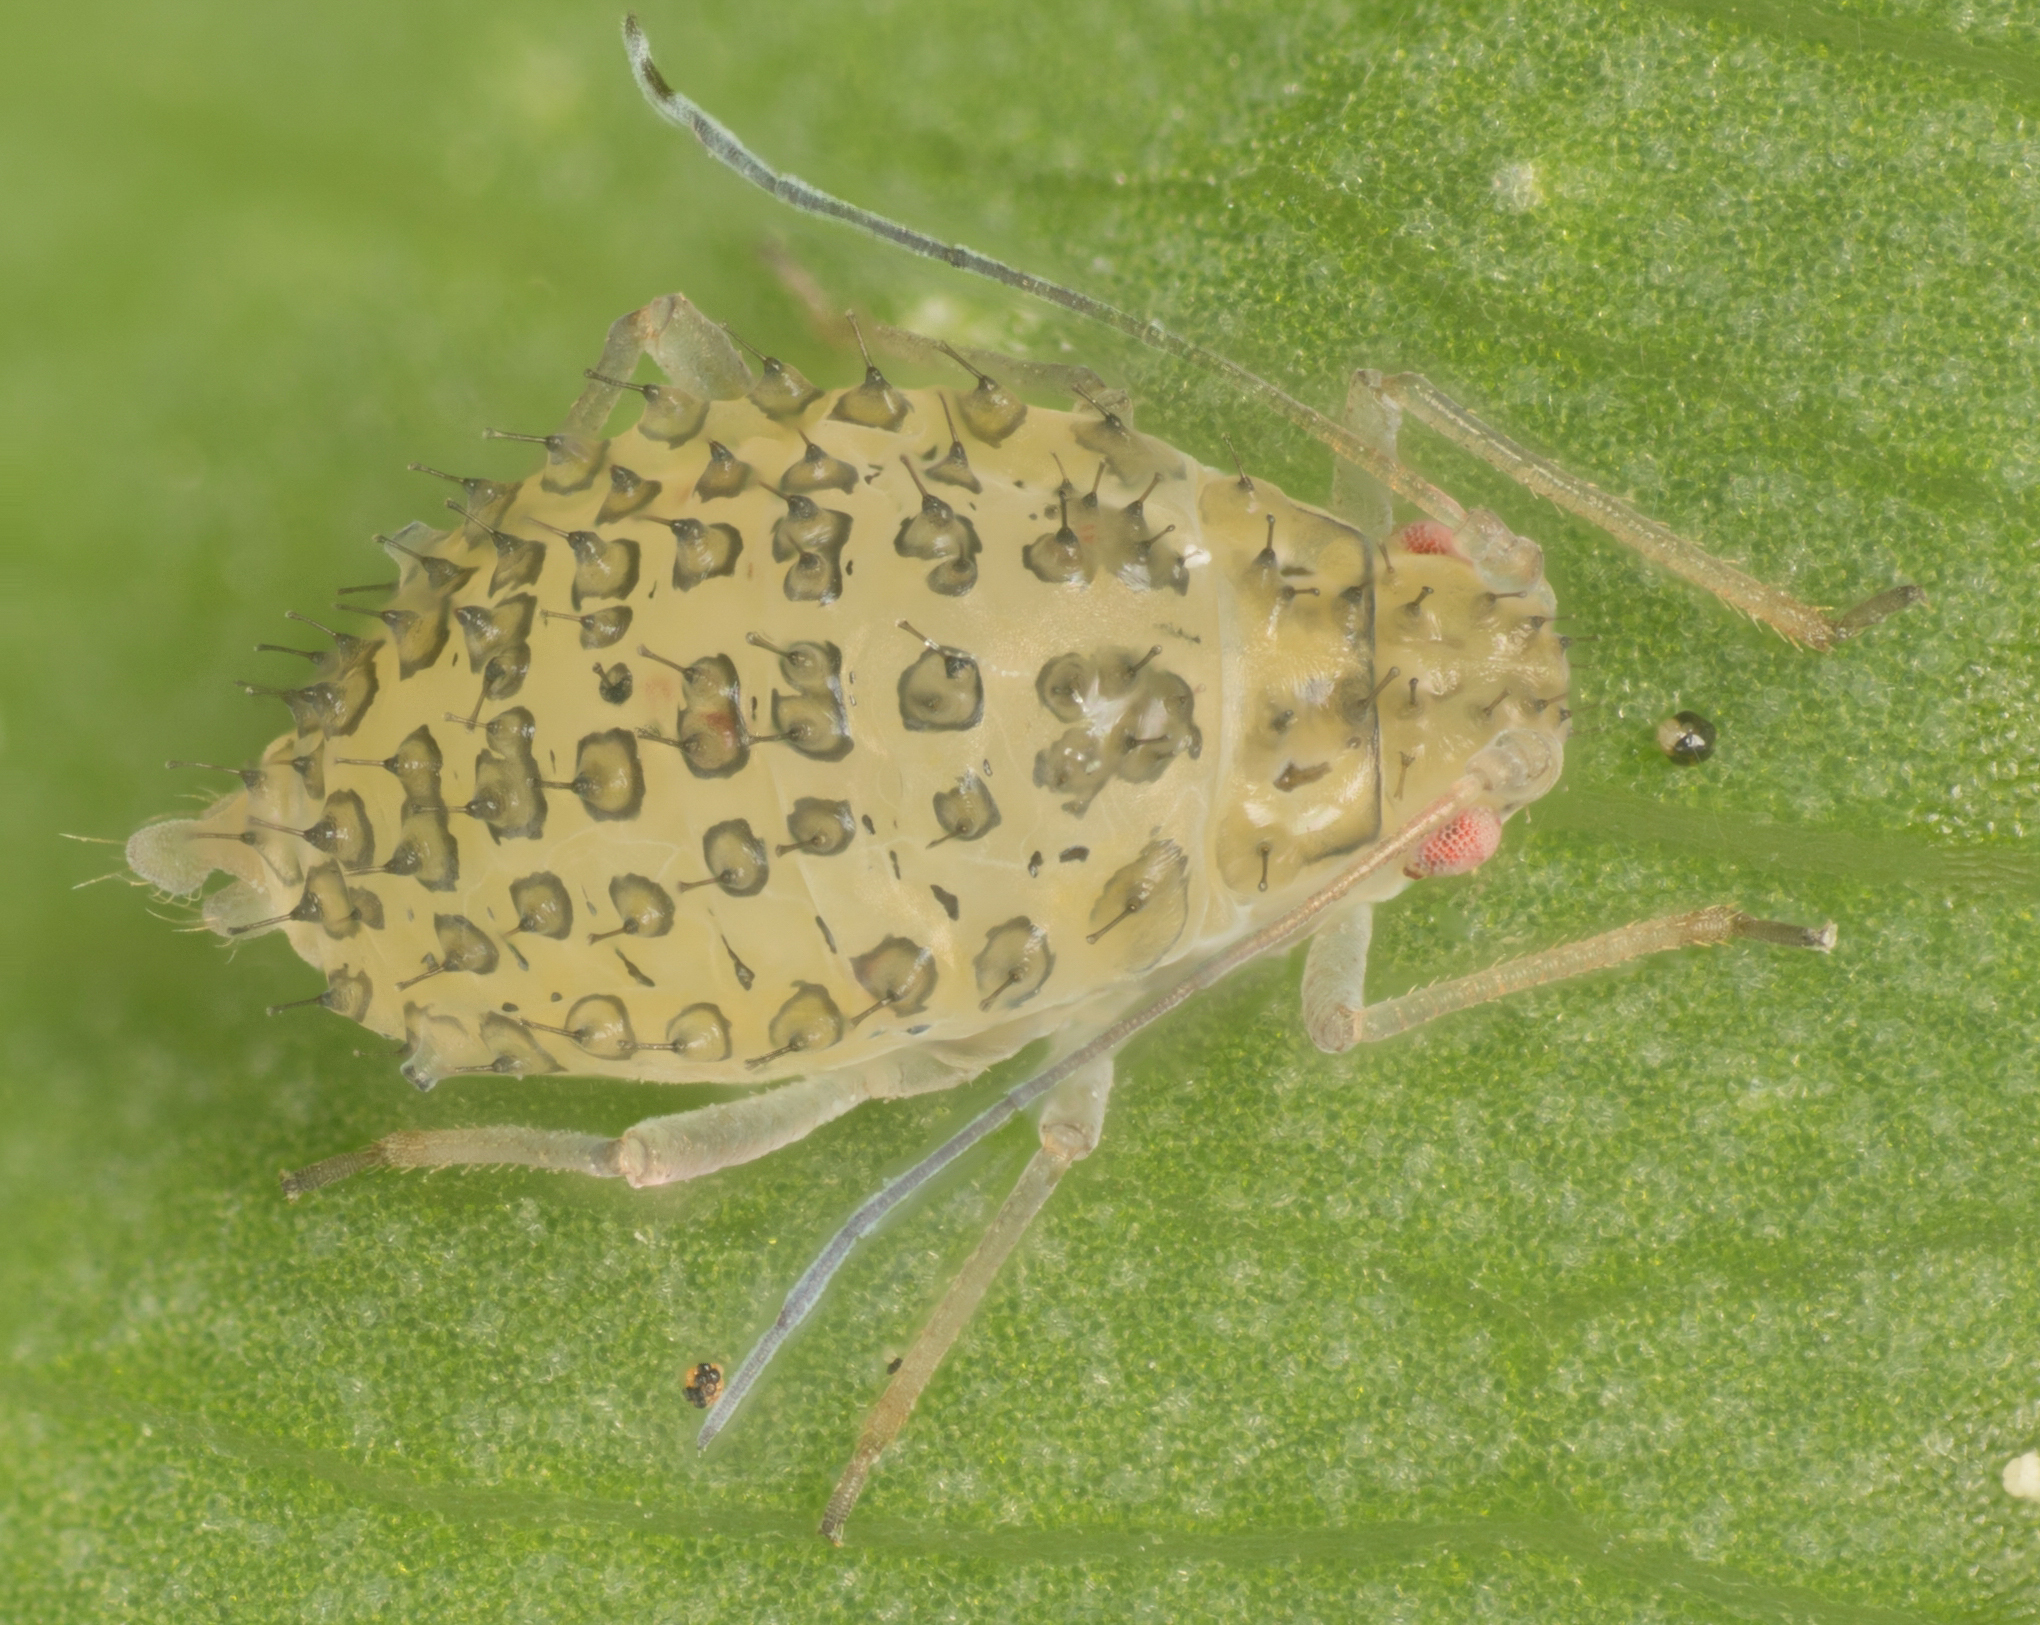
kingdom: Animalia
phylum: Arthropoda
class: Insecta
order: Hemiptera
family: Aphididae
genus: Therioaphis
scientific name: Therioaphis trifolii
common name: Spotted alfalfa aphid
